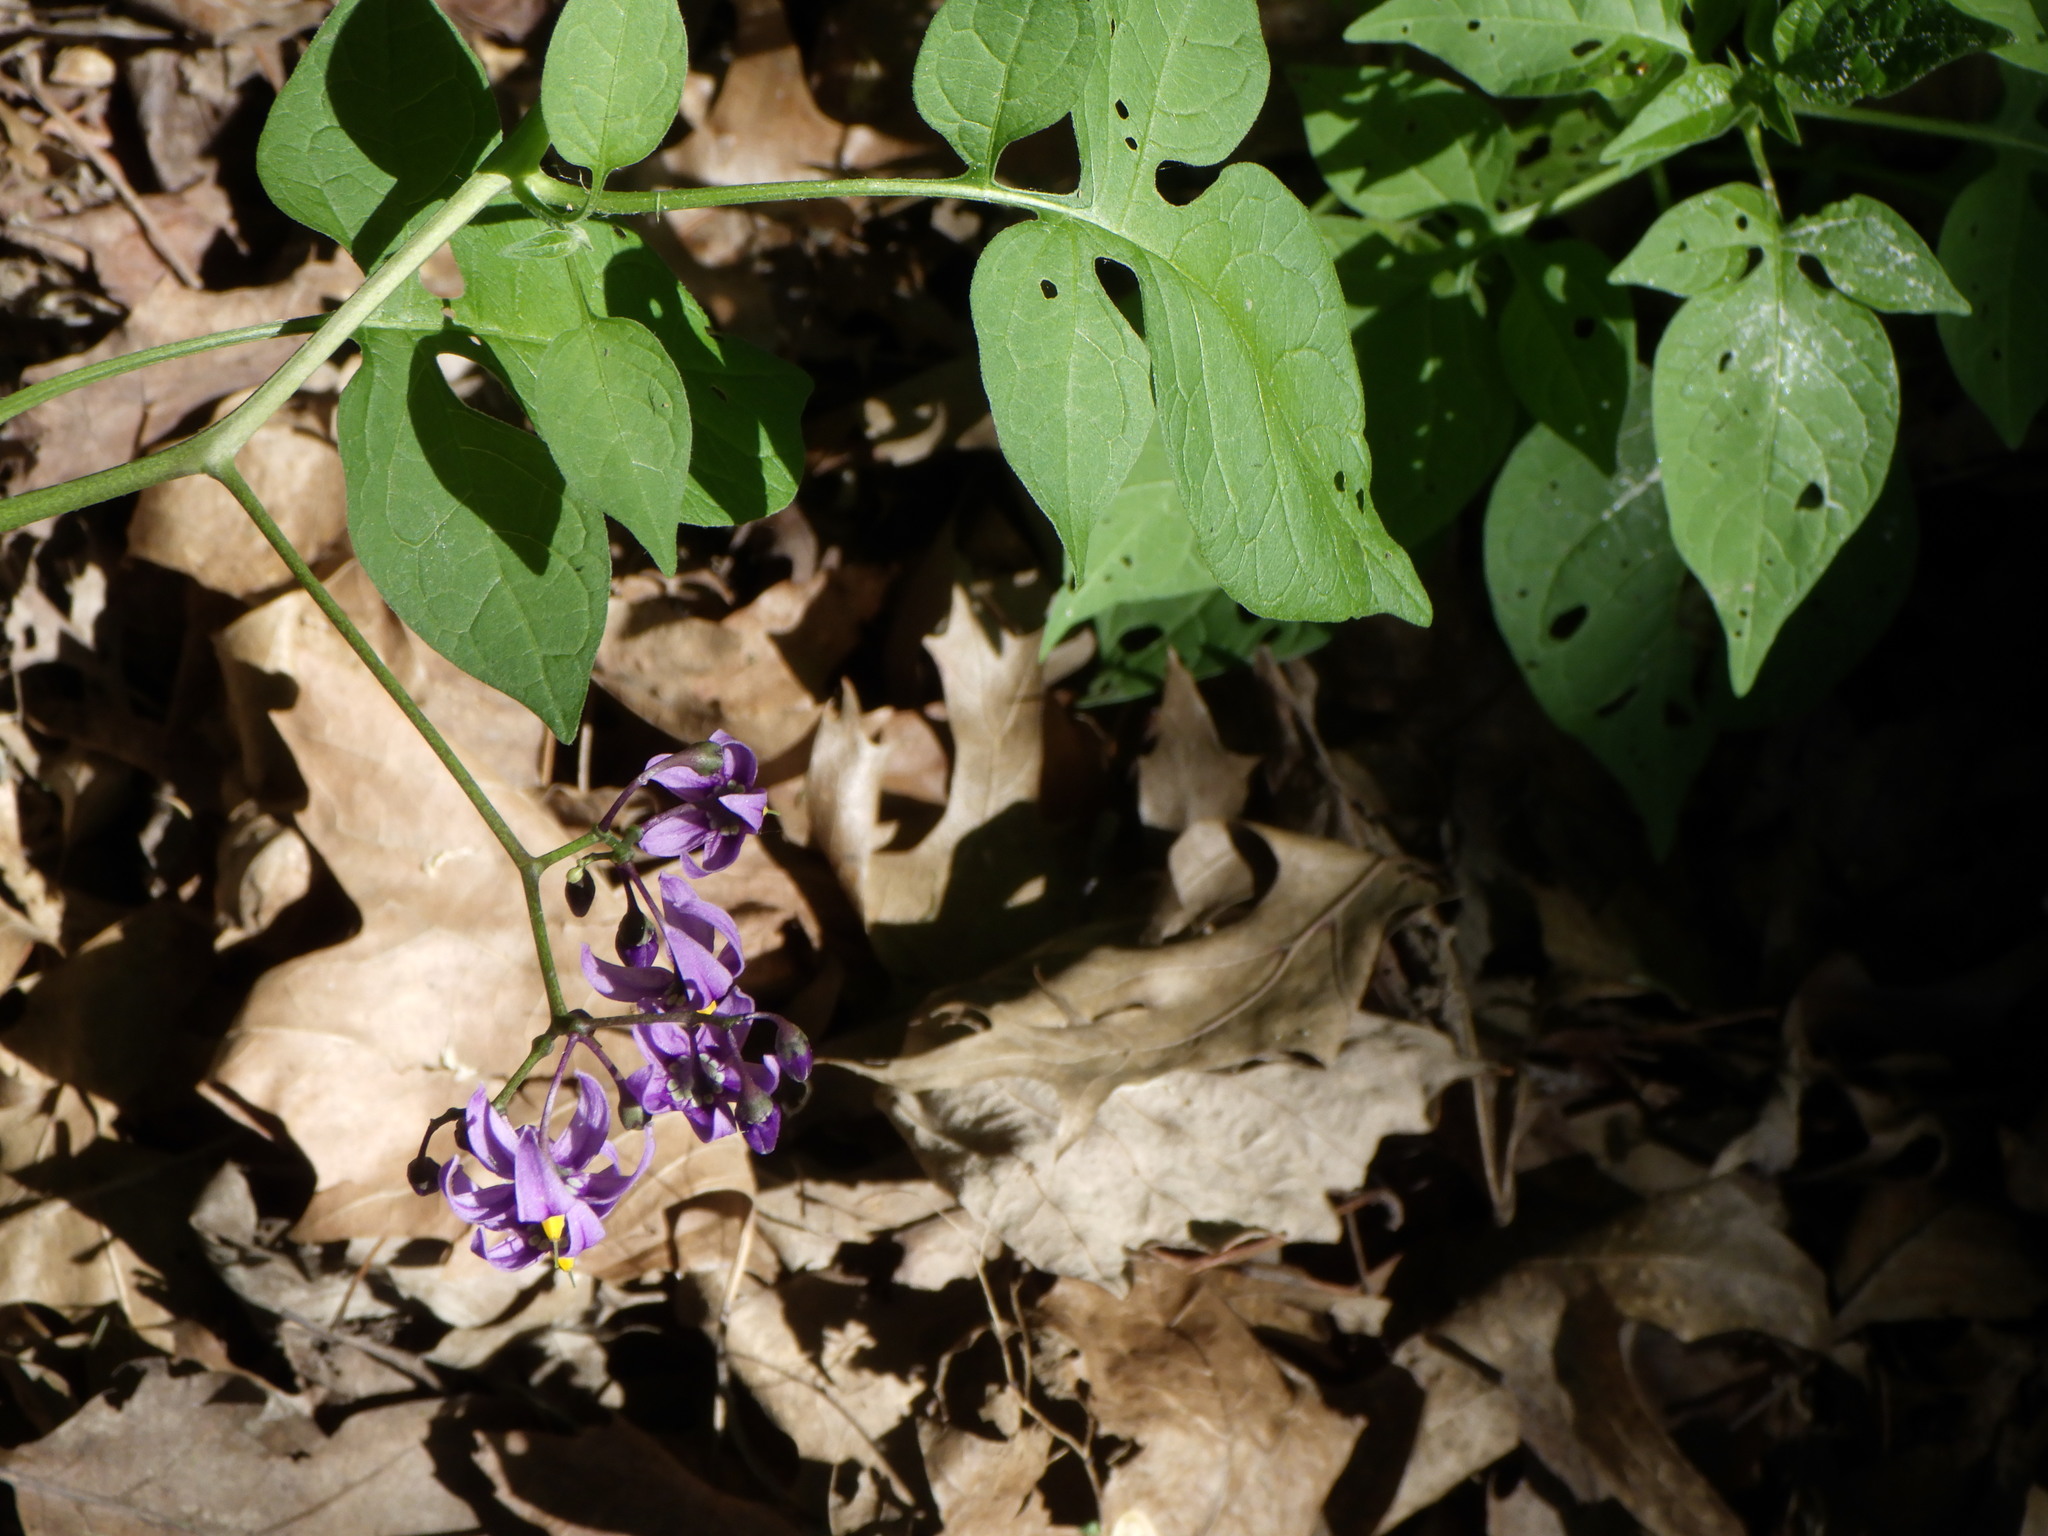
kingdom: Plantae
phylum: Tracheophyta
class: Magnoliopsida
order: Solanales
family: Solanaceae
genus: Solanum
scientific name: Solanum dulcamara
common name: Climbing nightshade
